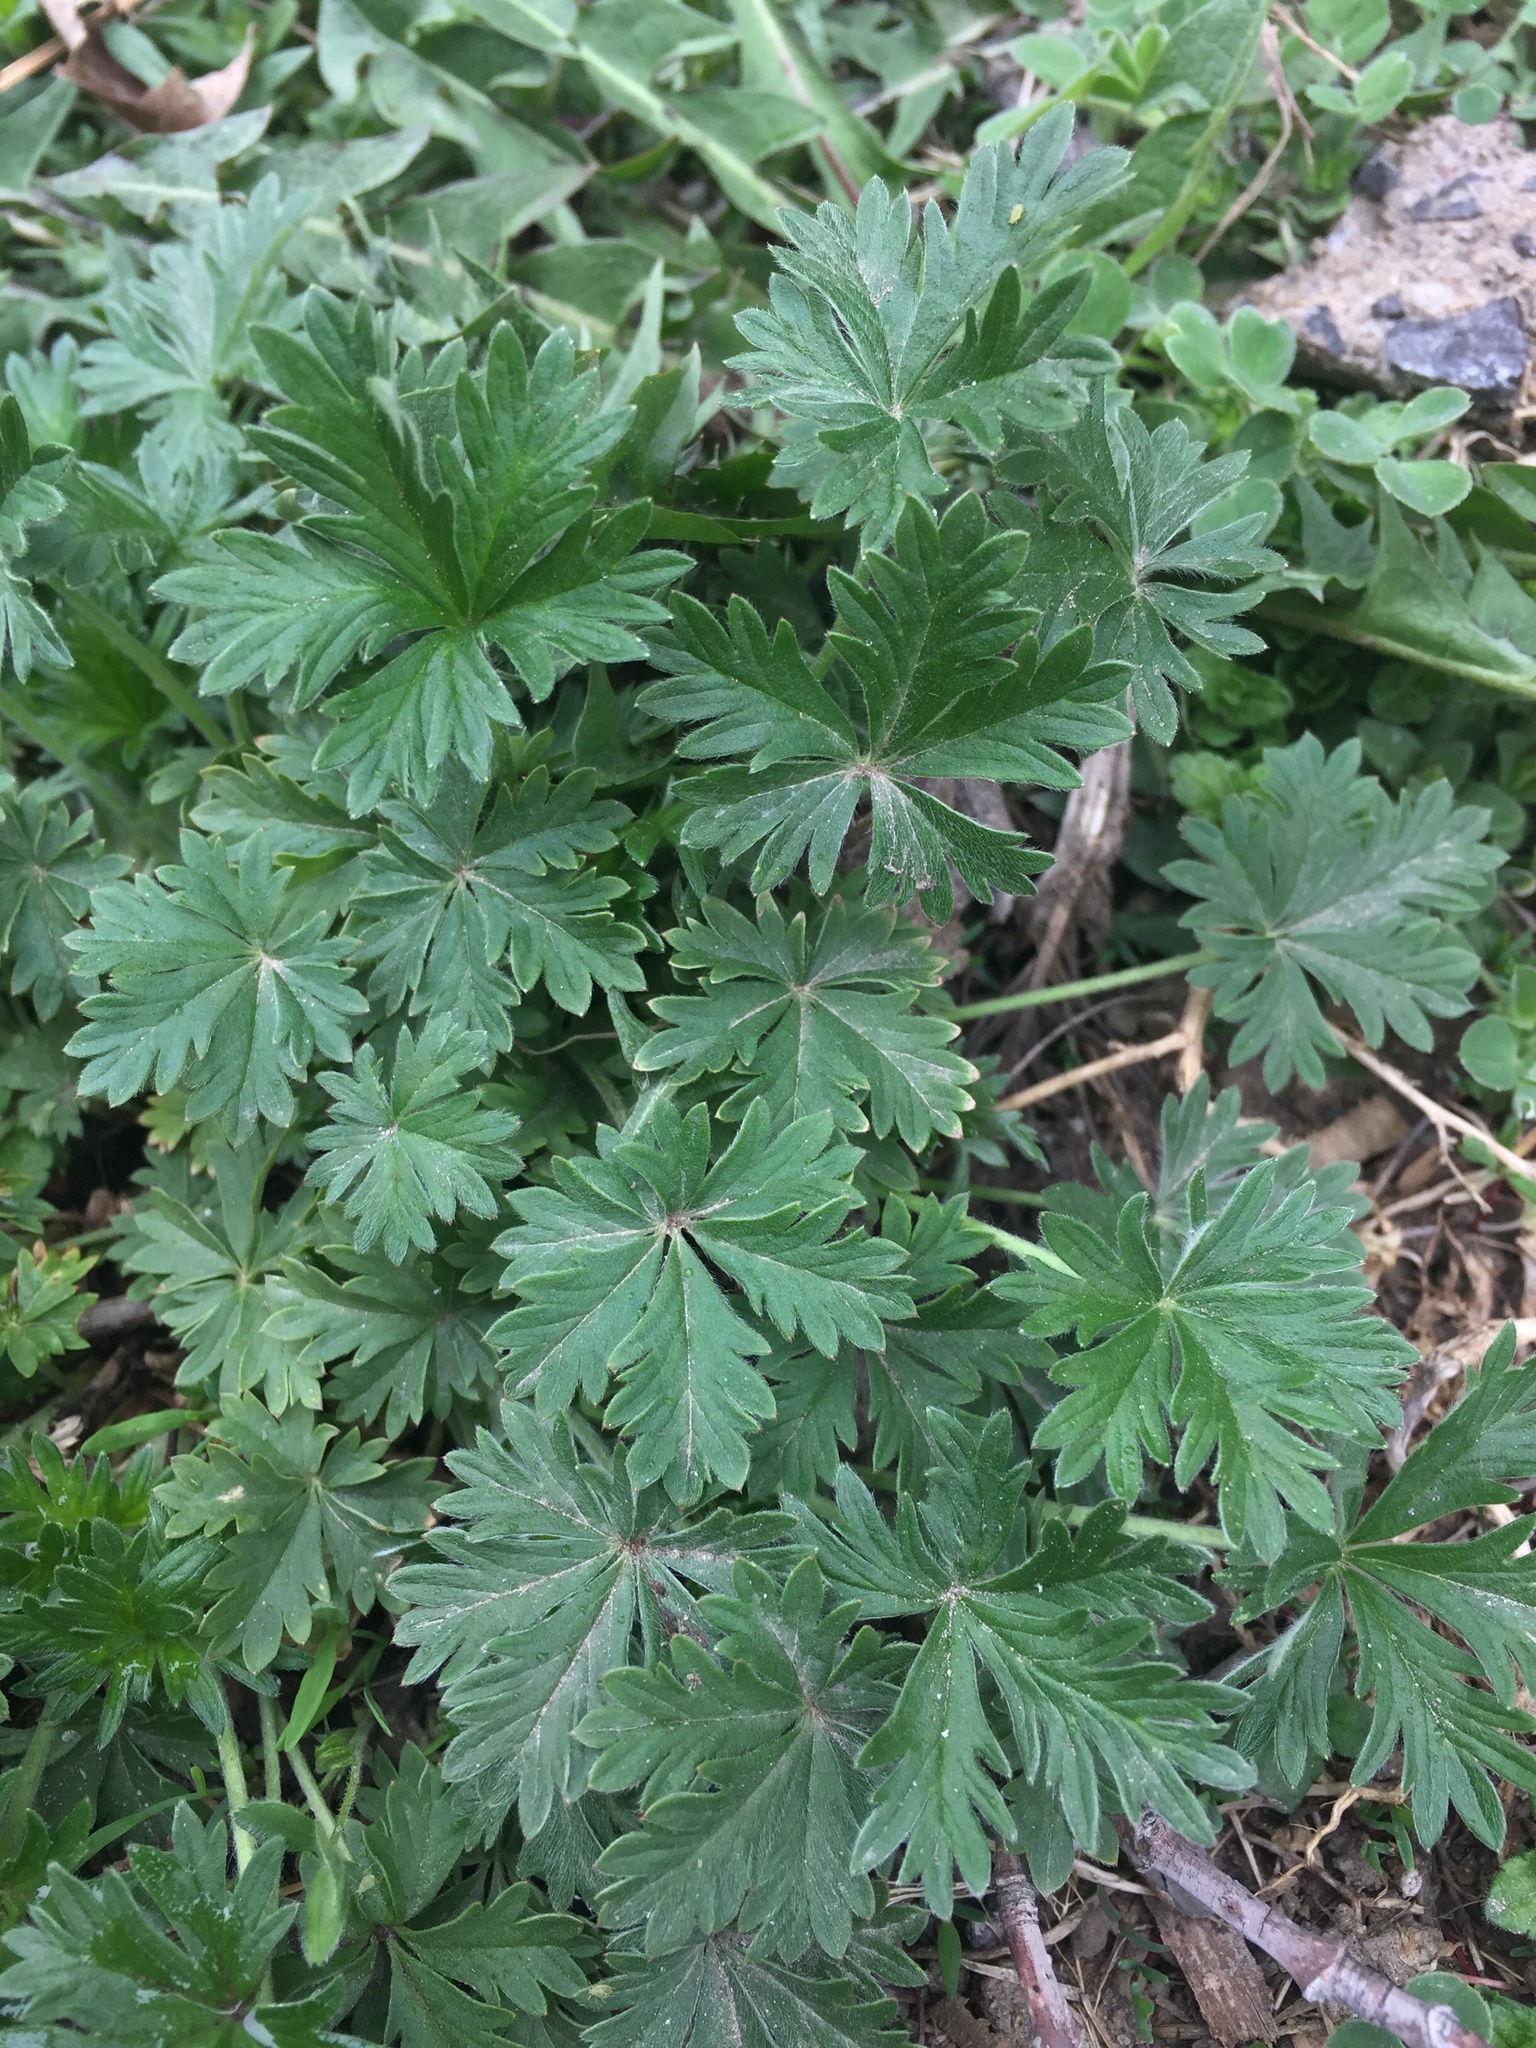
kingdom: Plantae
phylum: Tracheophyta
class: Magnoliopsida
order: Rosales
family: Rosaceae
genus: Potentilla
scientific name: Potentilla argentea
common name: Hoary cinquefoil
